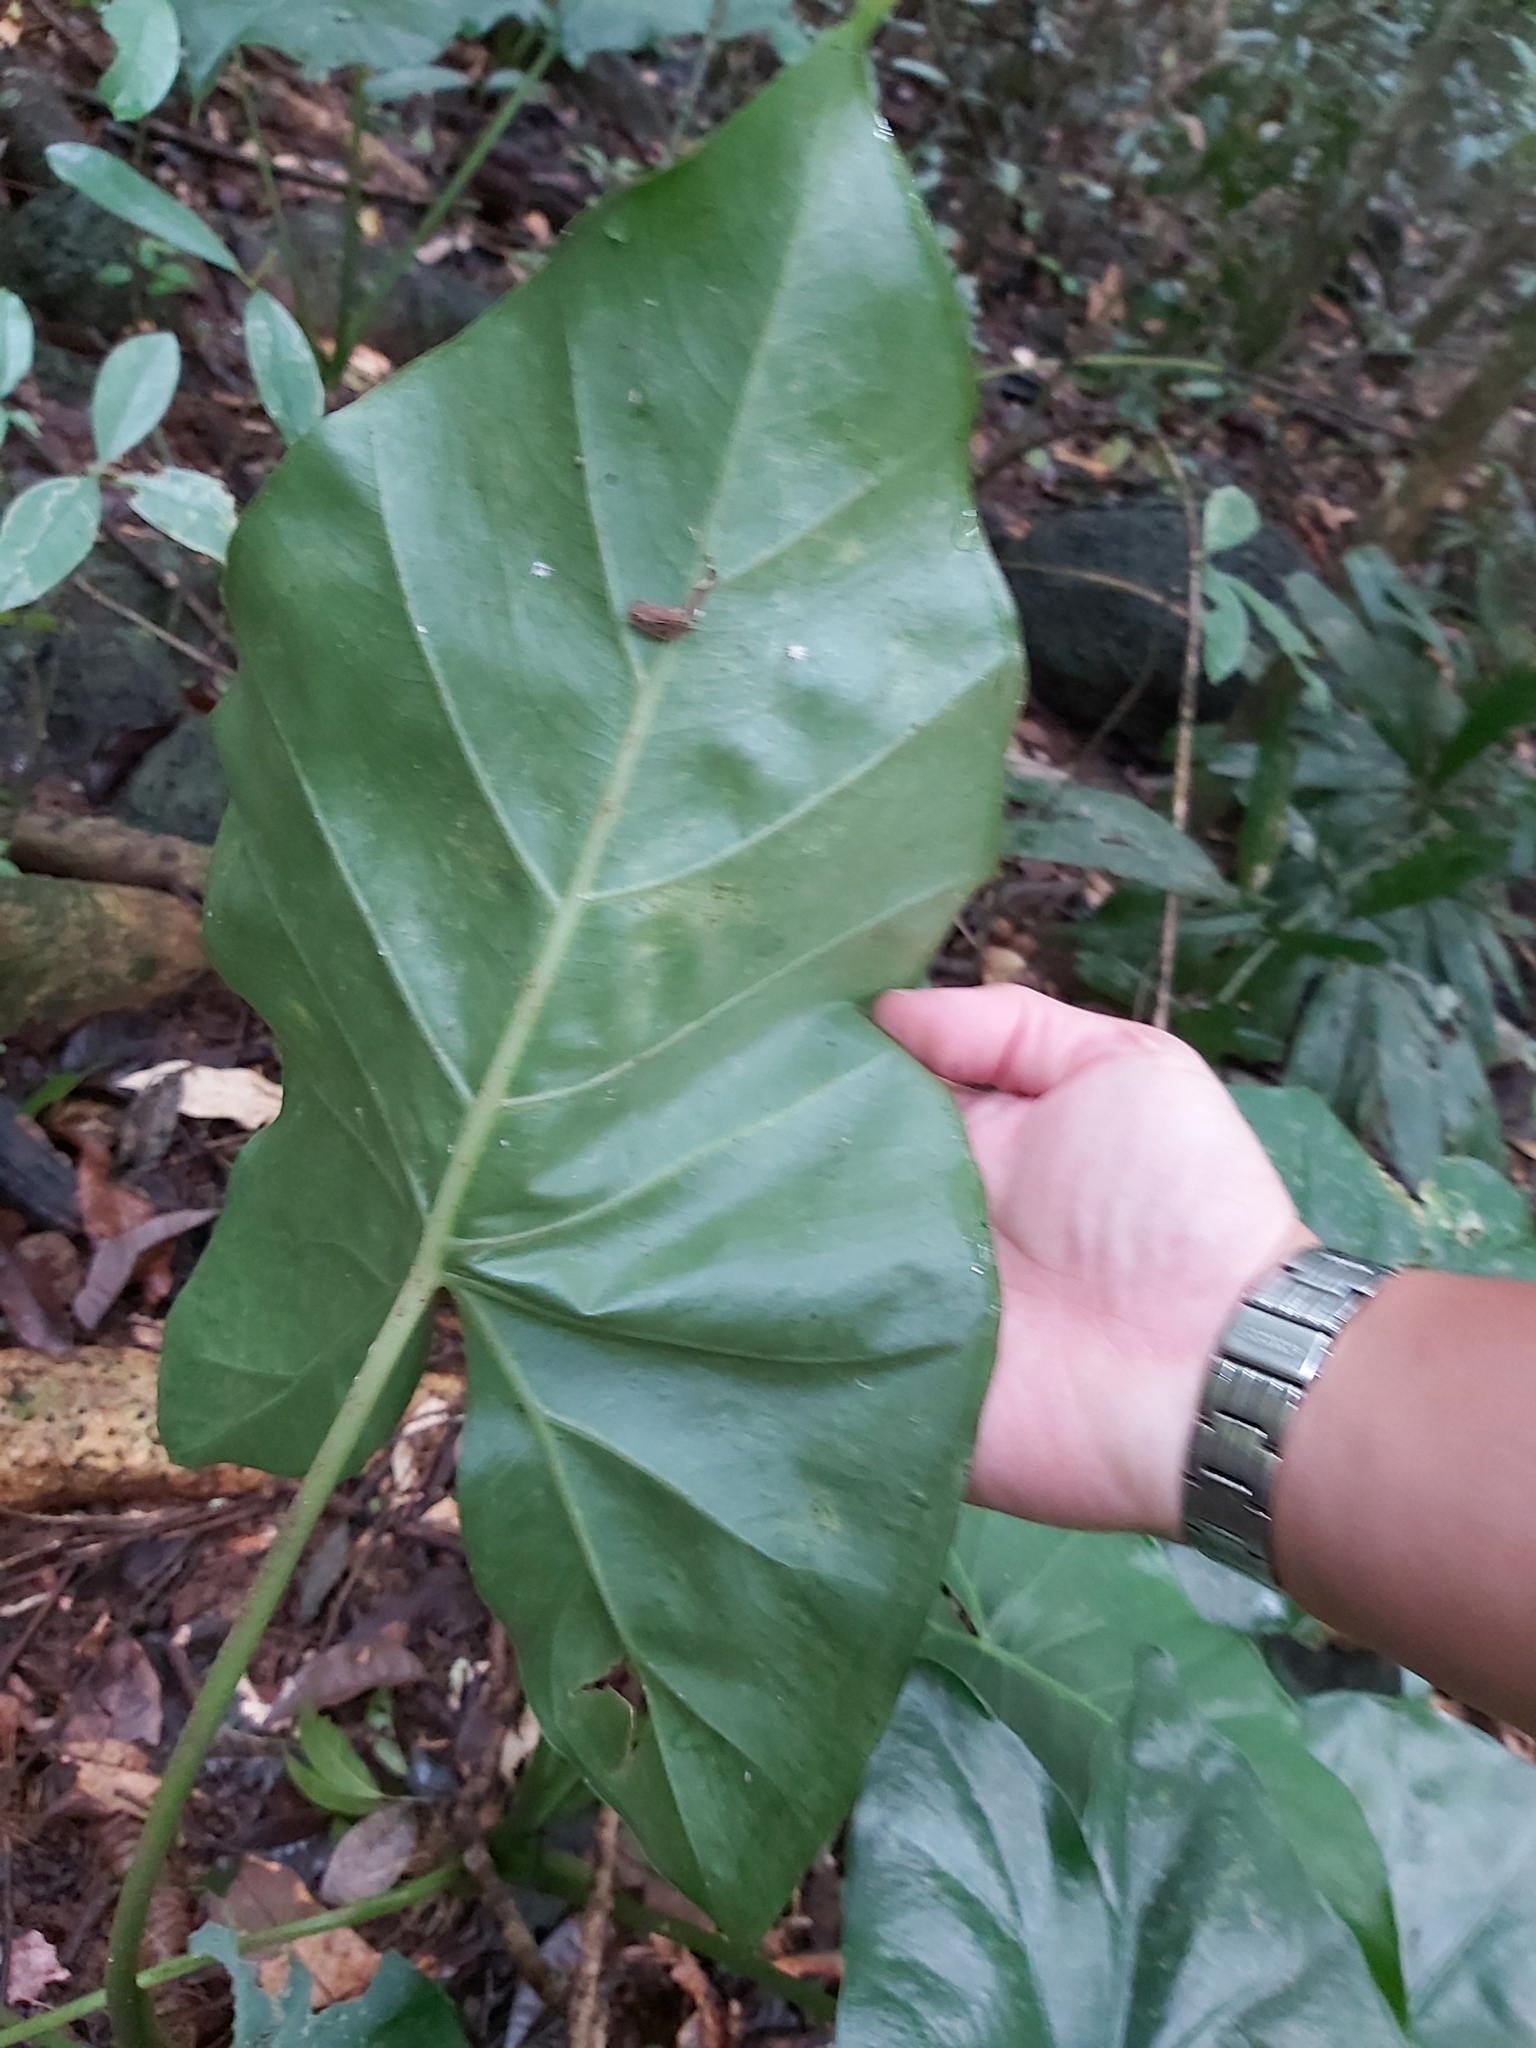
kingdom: Plantae
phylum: Tracheophyta
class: Liliopsida
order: Alismatales
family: Araceae
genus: Alocasia
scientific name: Alocasia brisbanensis
